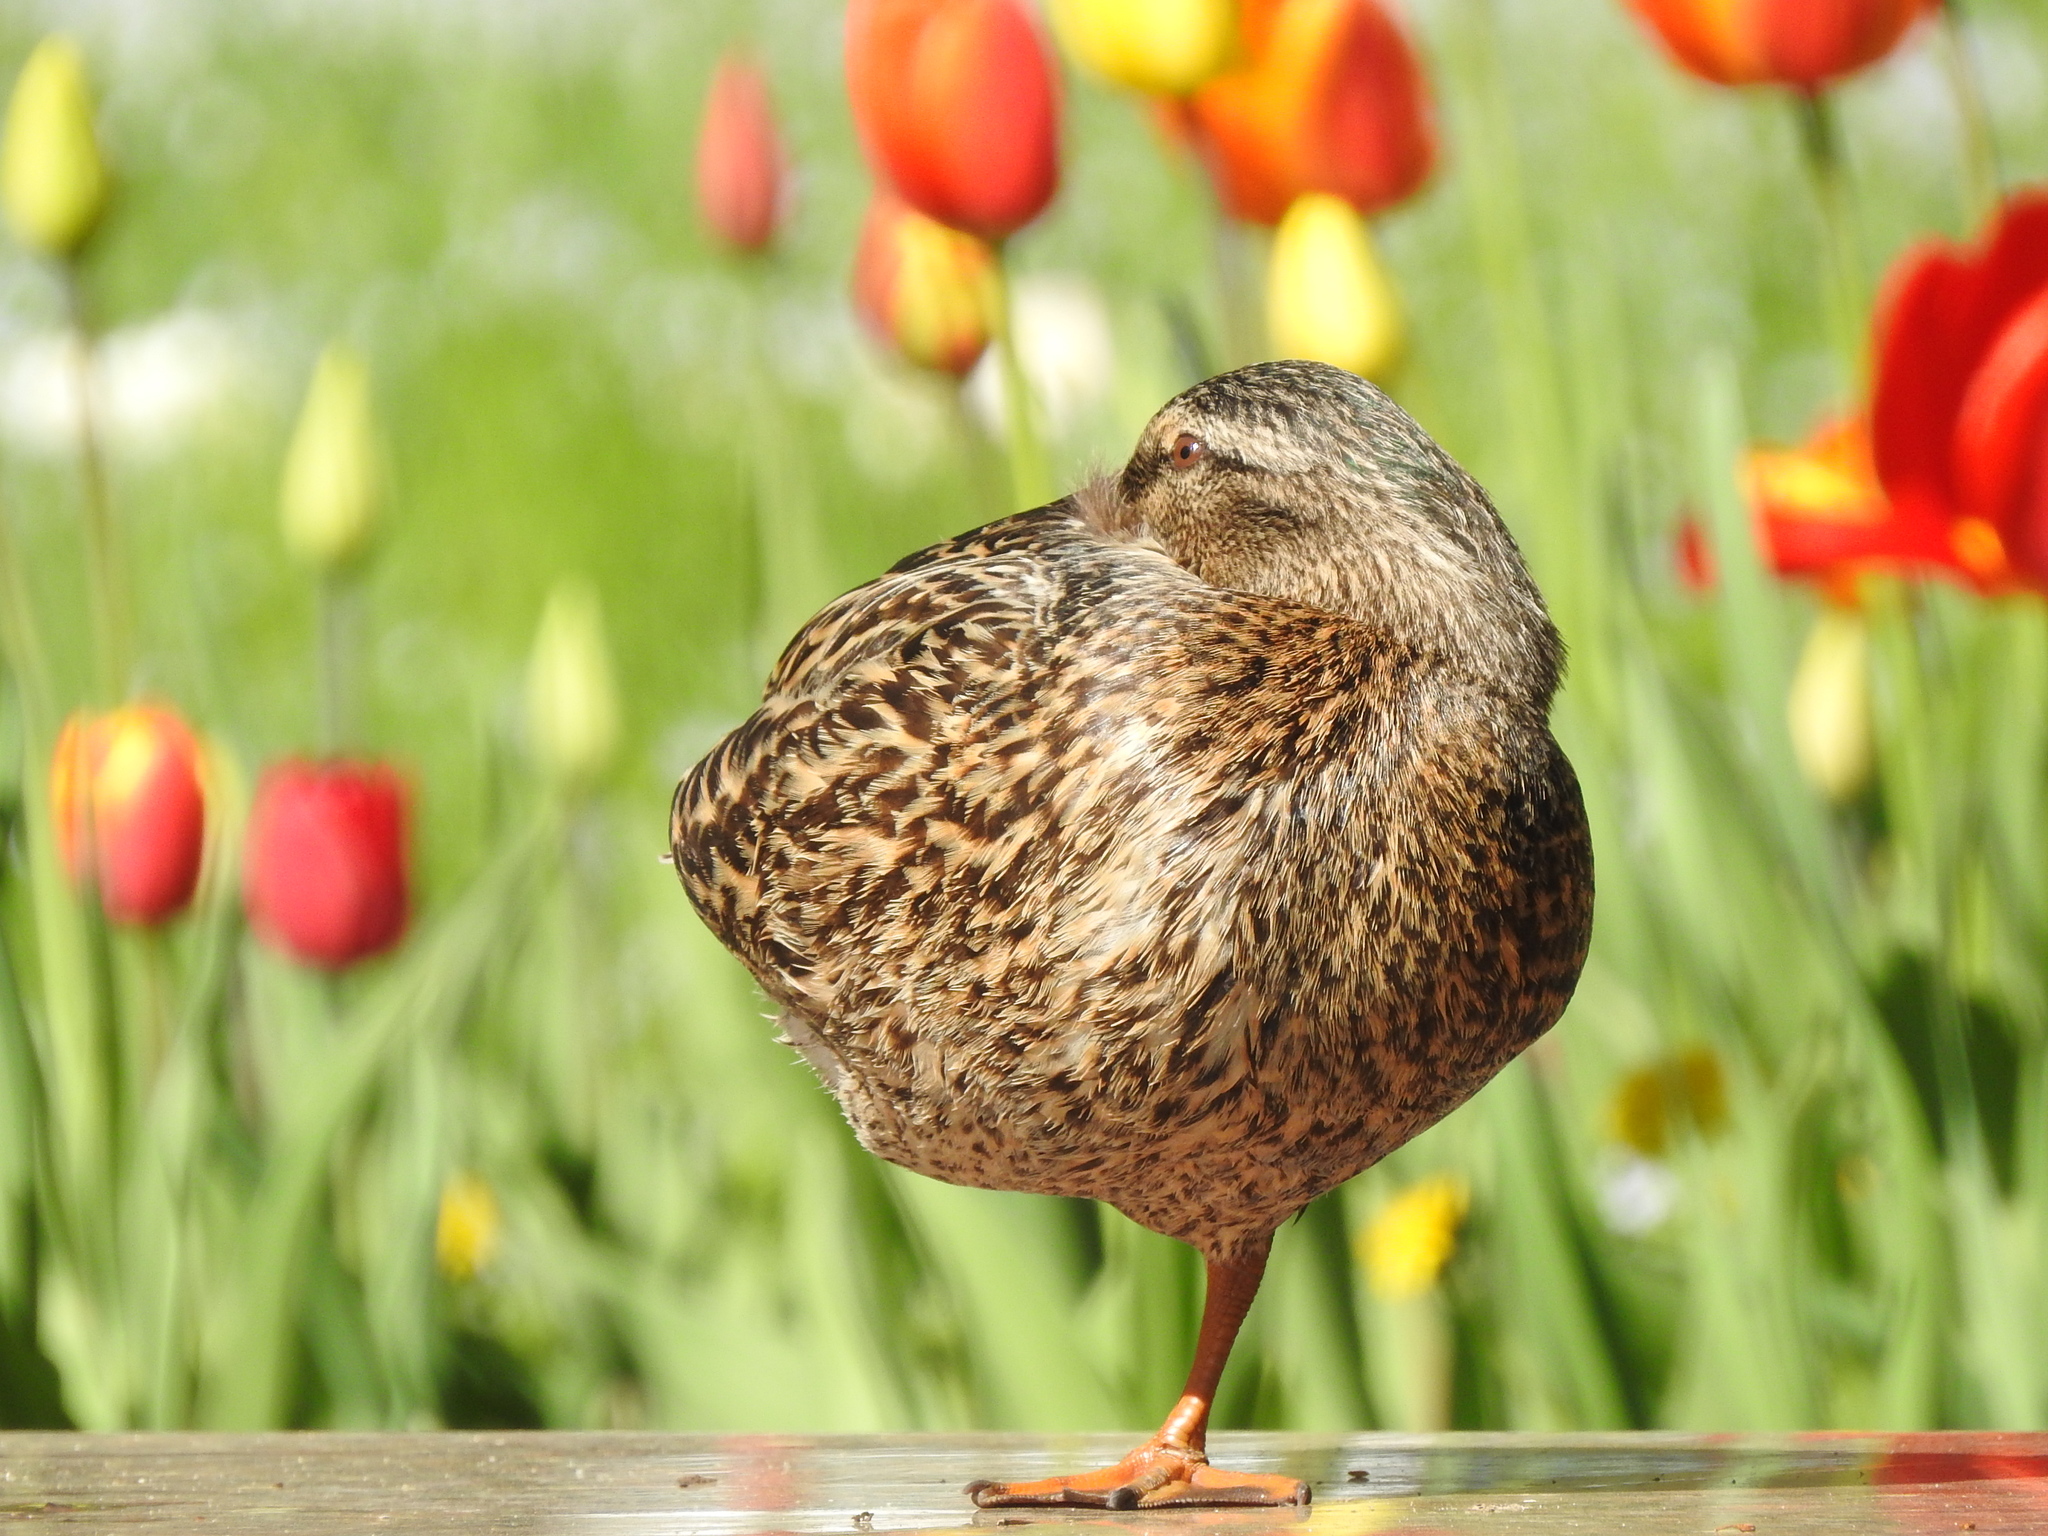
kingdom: Animalia
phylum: Chordata
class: Aves
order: Anseriformes
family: Anatidae
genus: Anas
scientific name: Anas platyrhynchos
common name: Mallard
